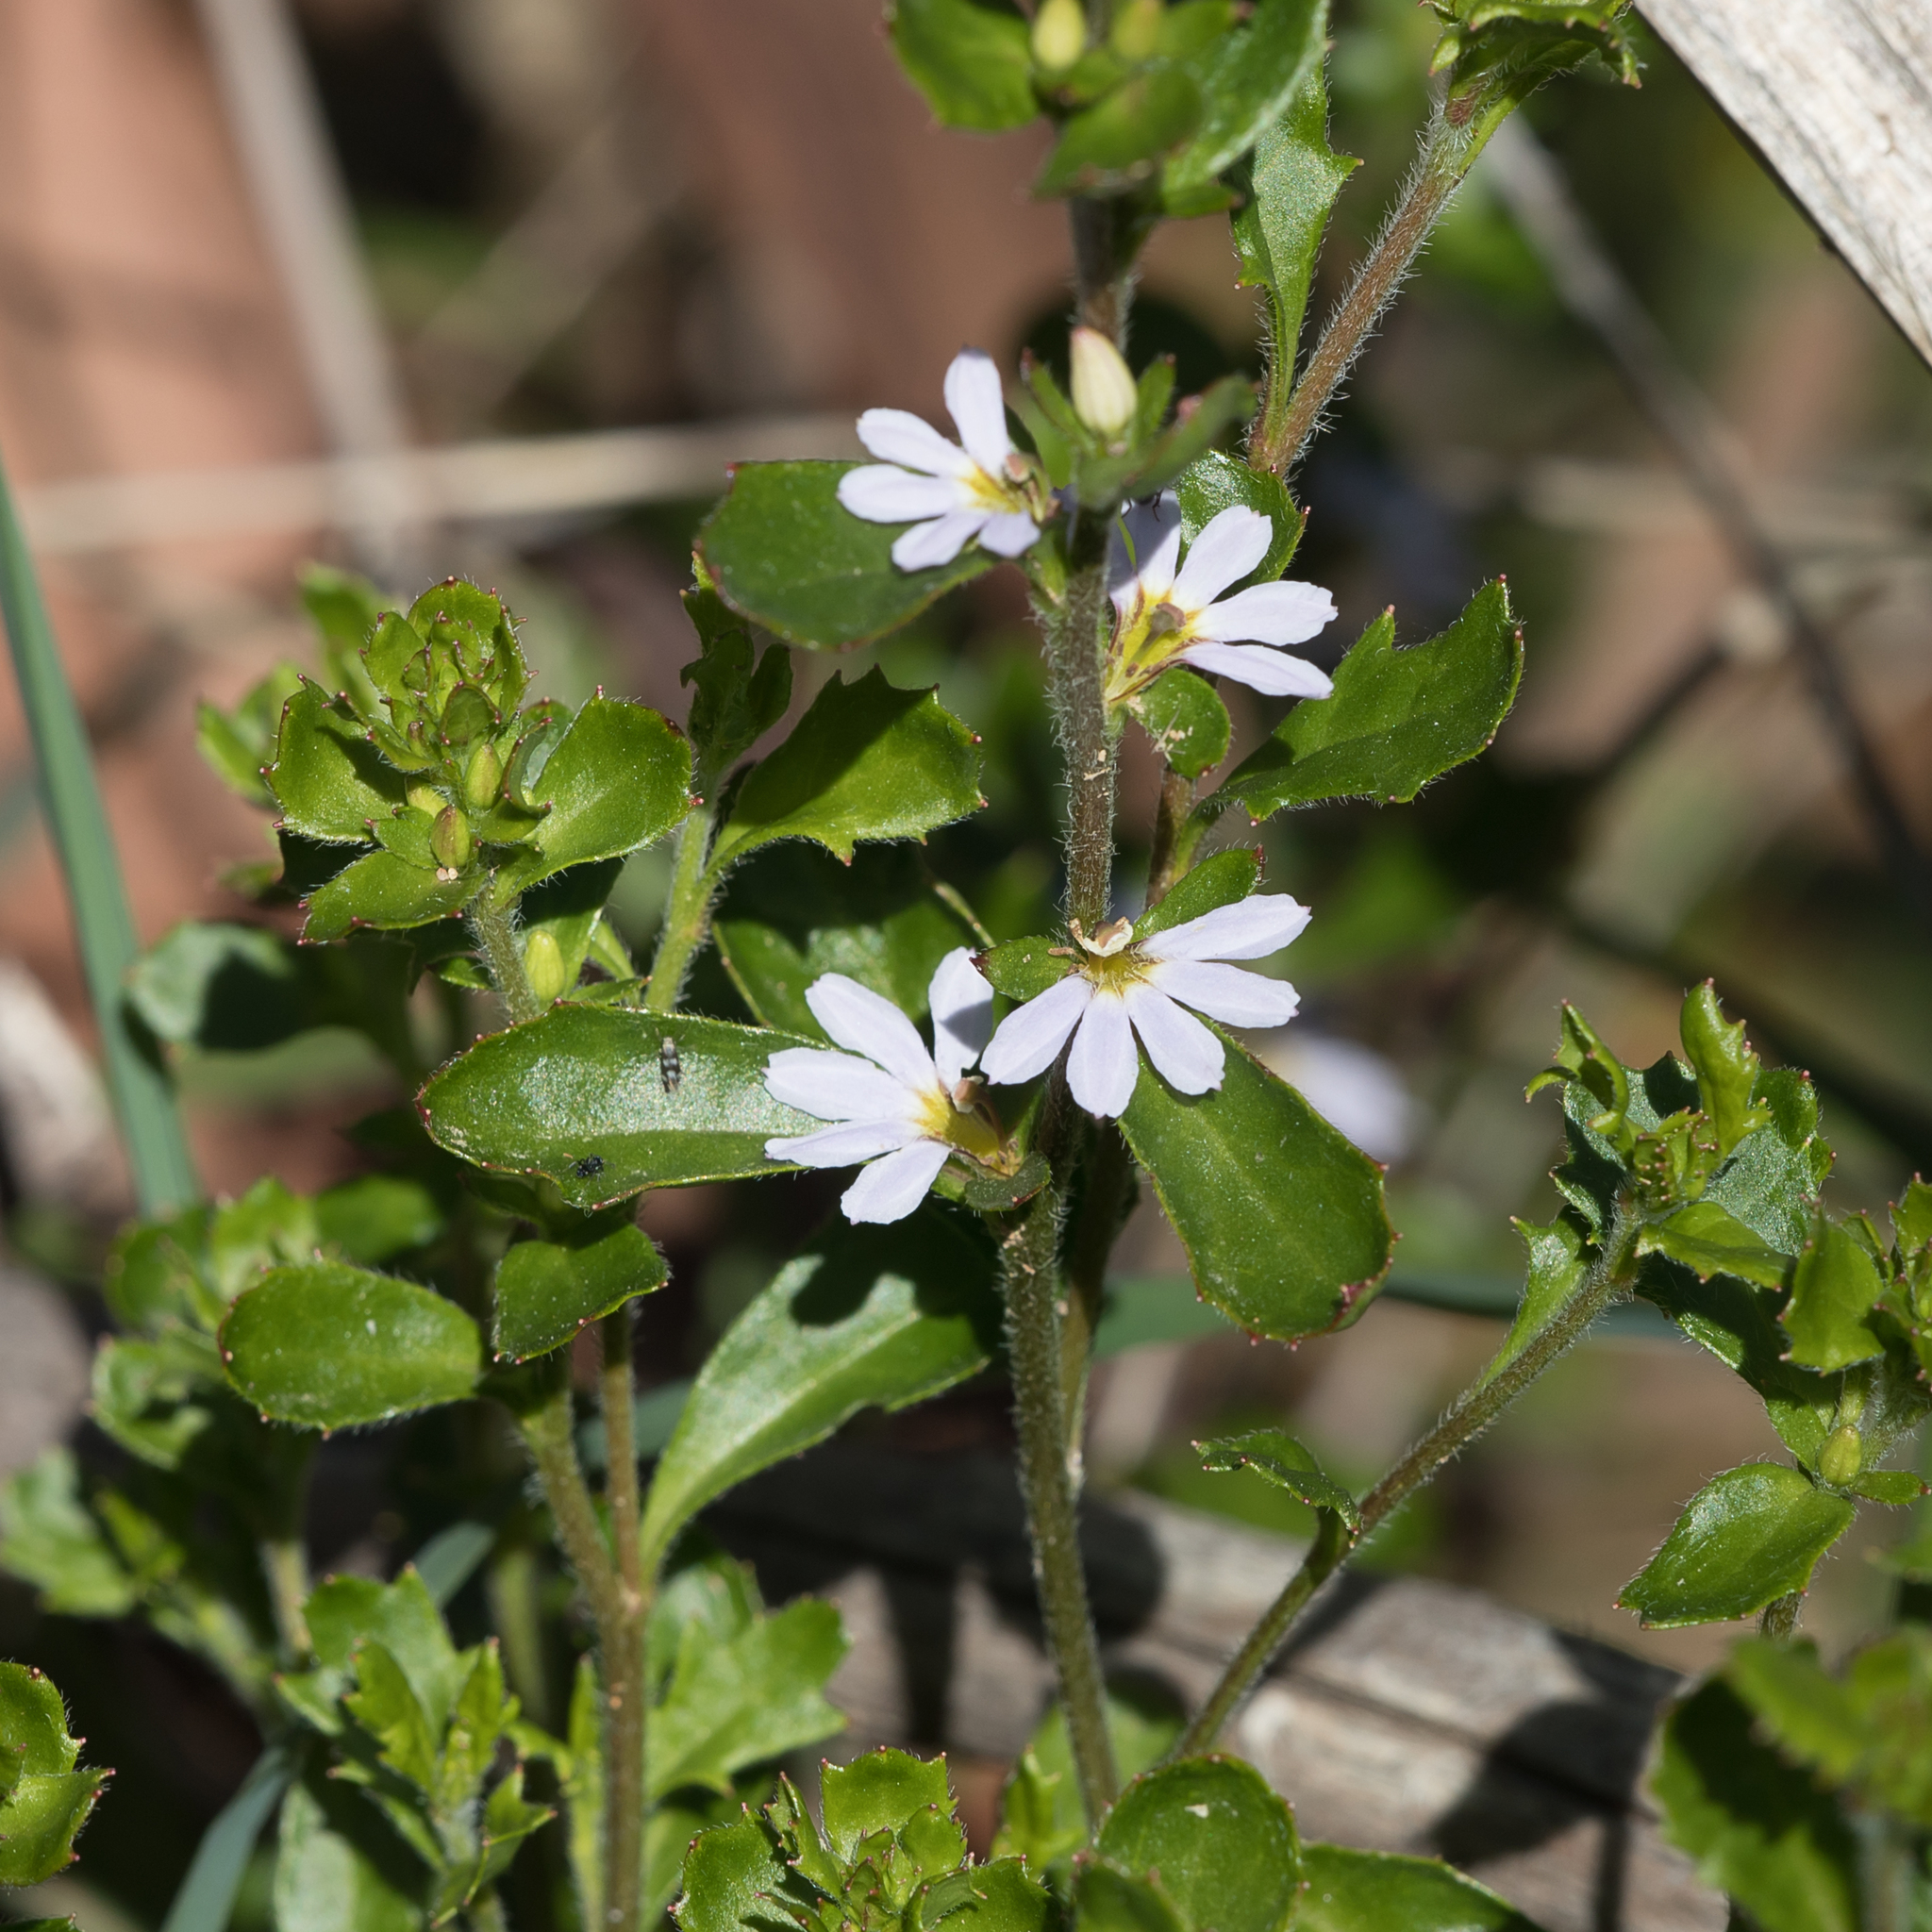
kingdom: Plantae
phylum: Tracheophyta
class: Magnoliopsida
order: Asterales
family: Goodeniaceae
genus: Scaevola
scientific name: Scaevola albida
